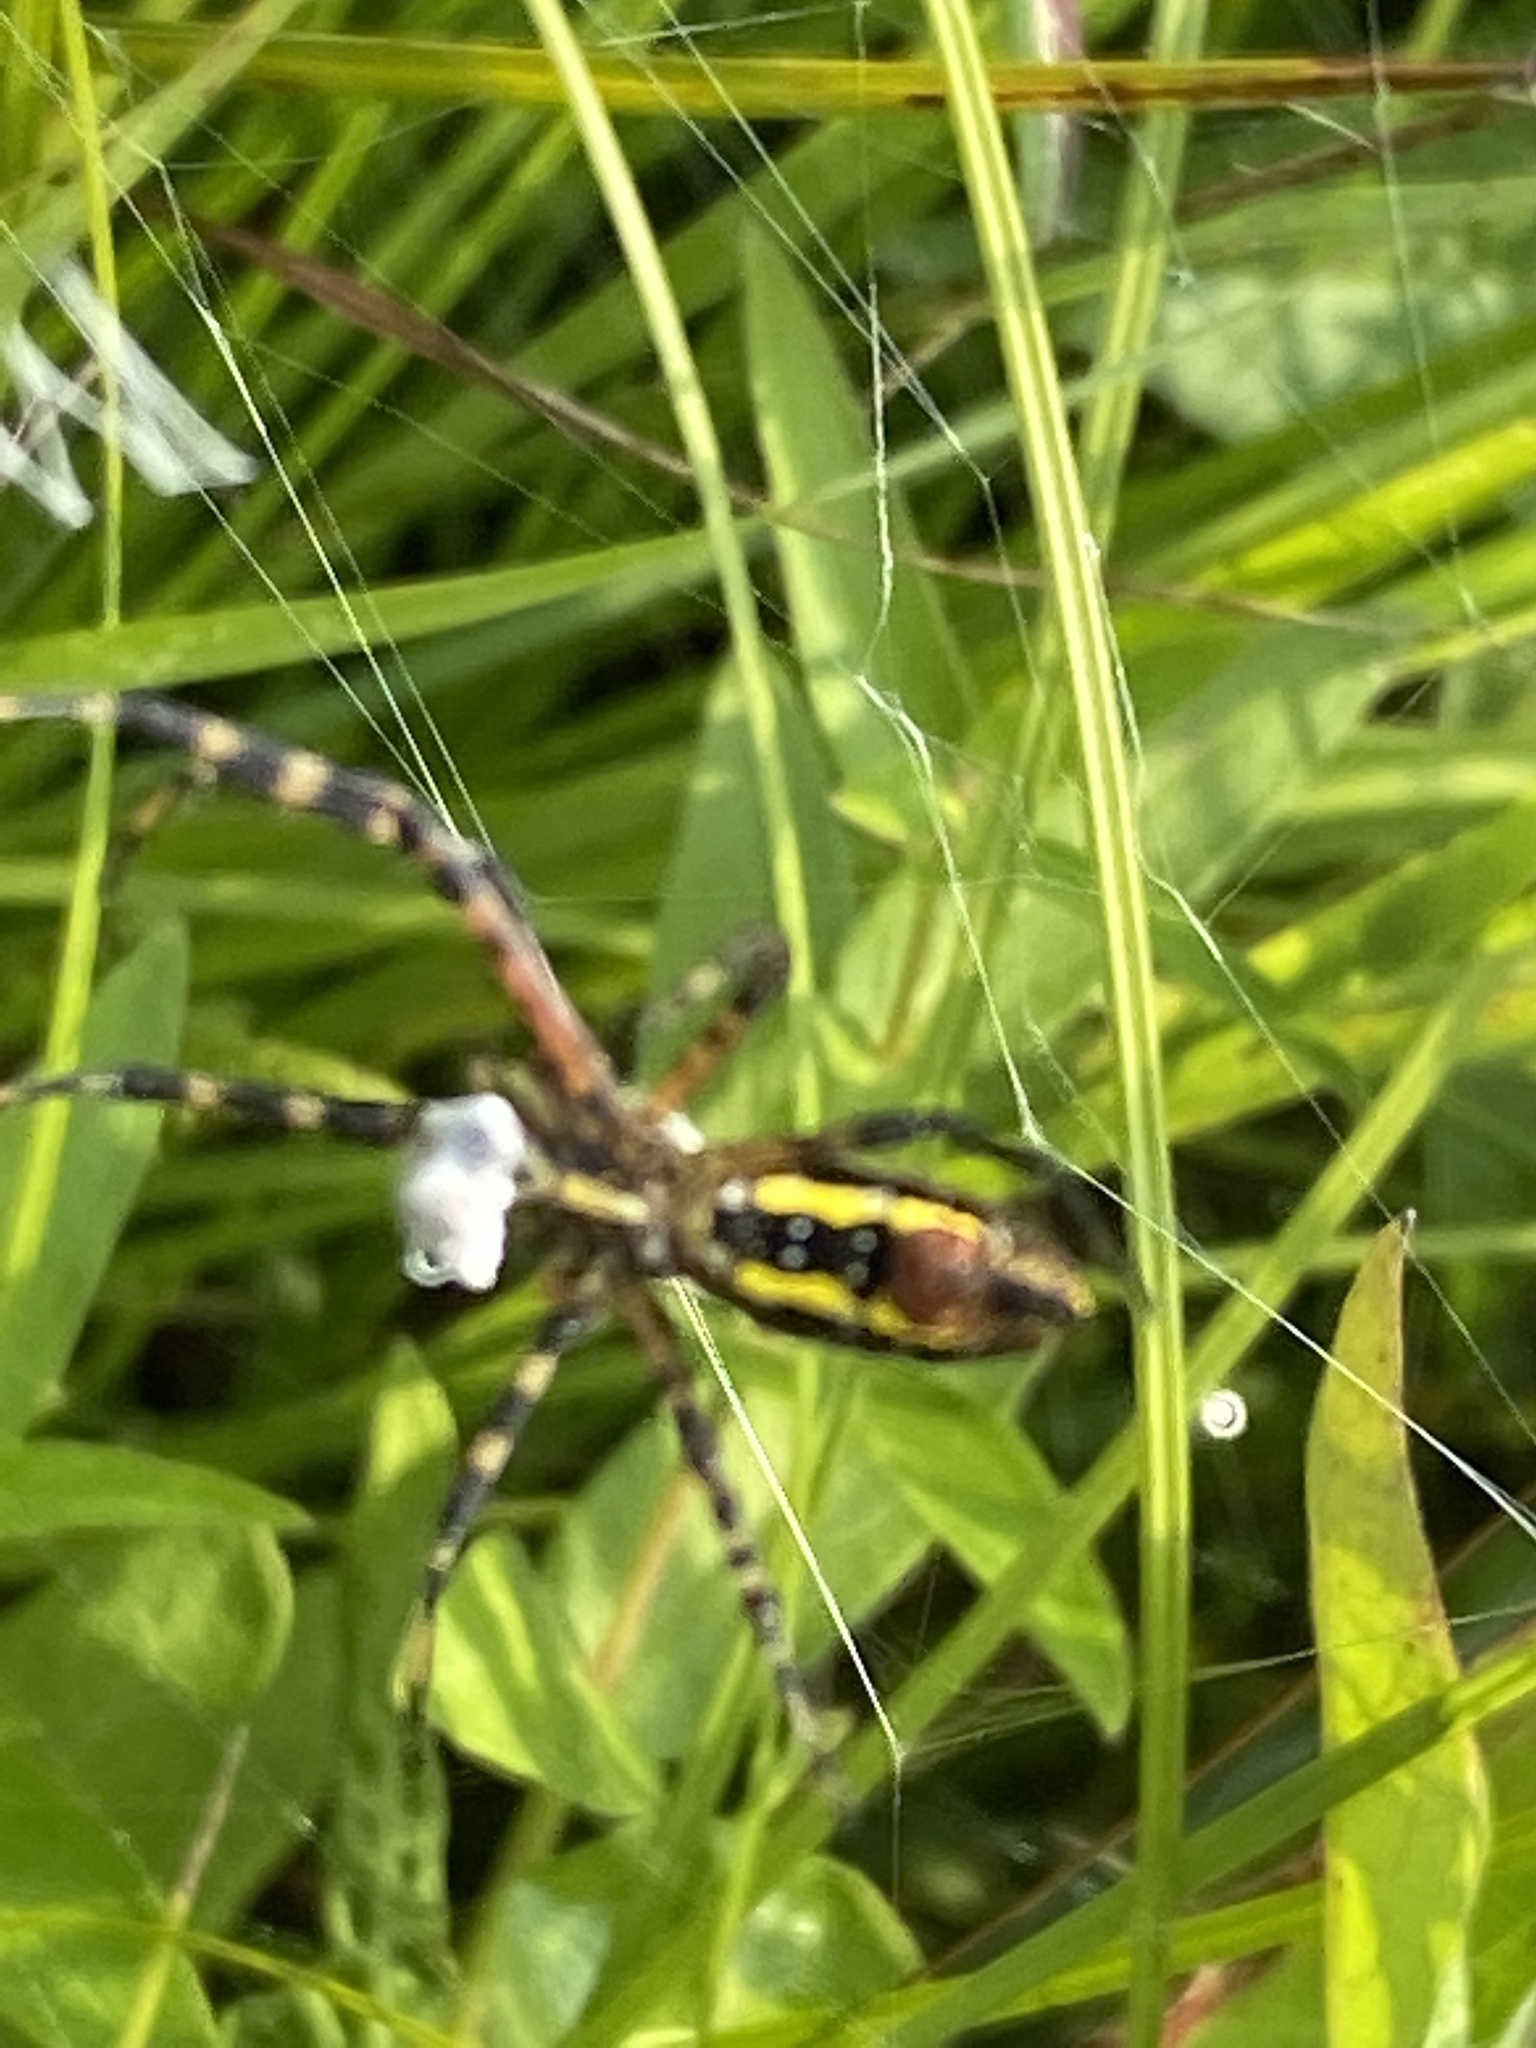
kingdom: Animalia
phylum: Arthropoda
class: Arachnida
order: Araneae
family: Araneidae
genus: Argiope
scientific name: Argiope trifasciata
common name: Banded garden spider
